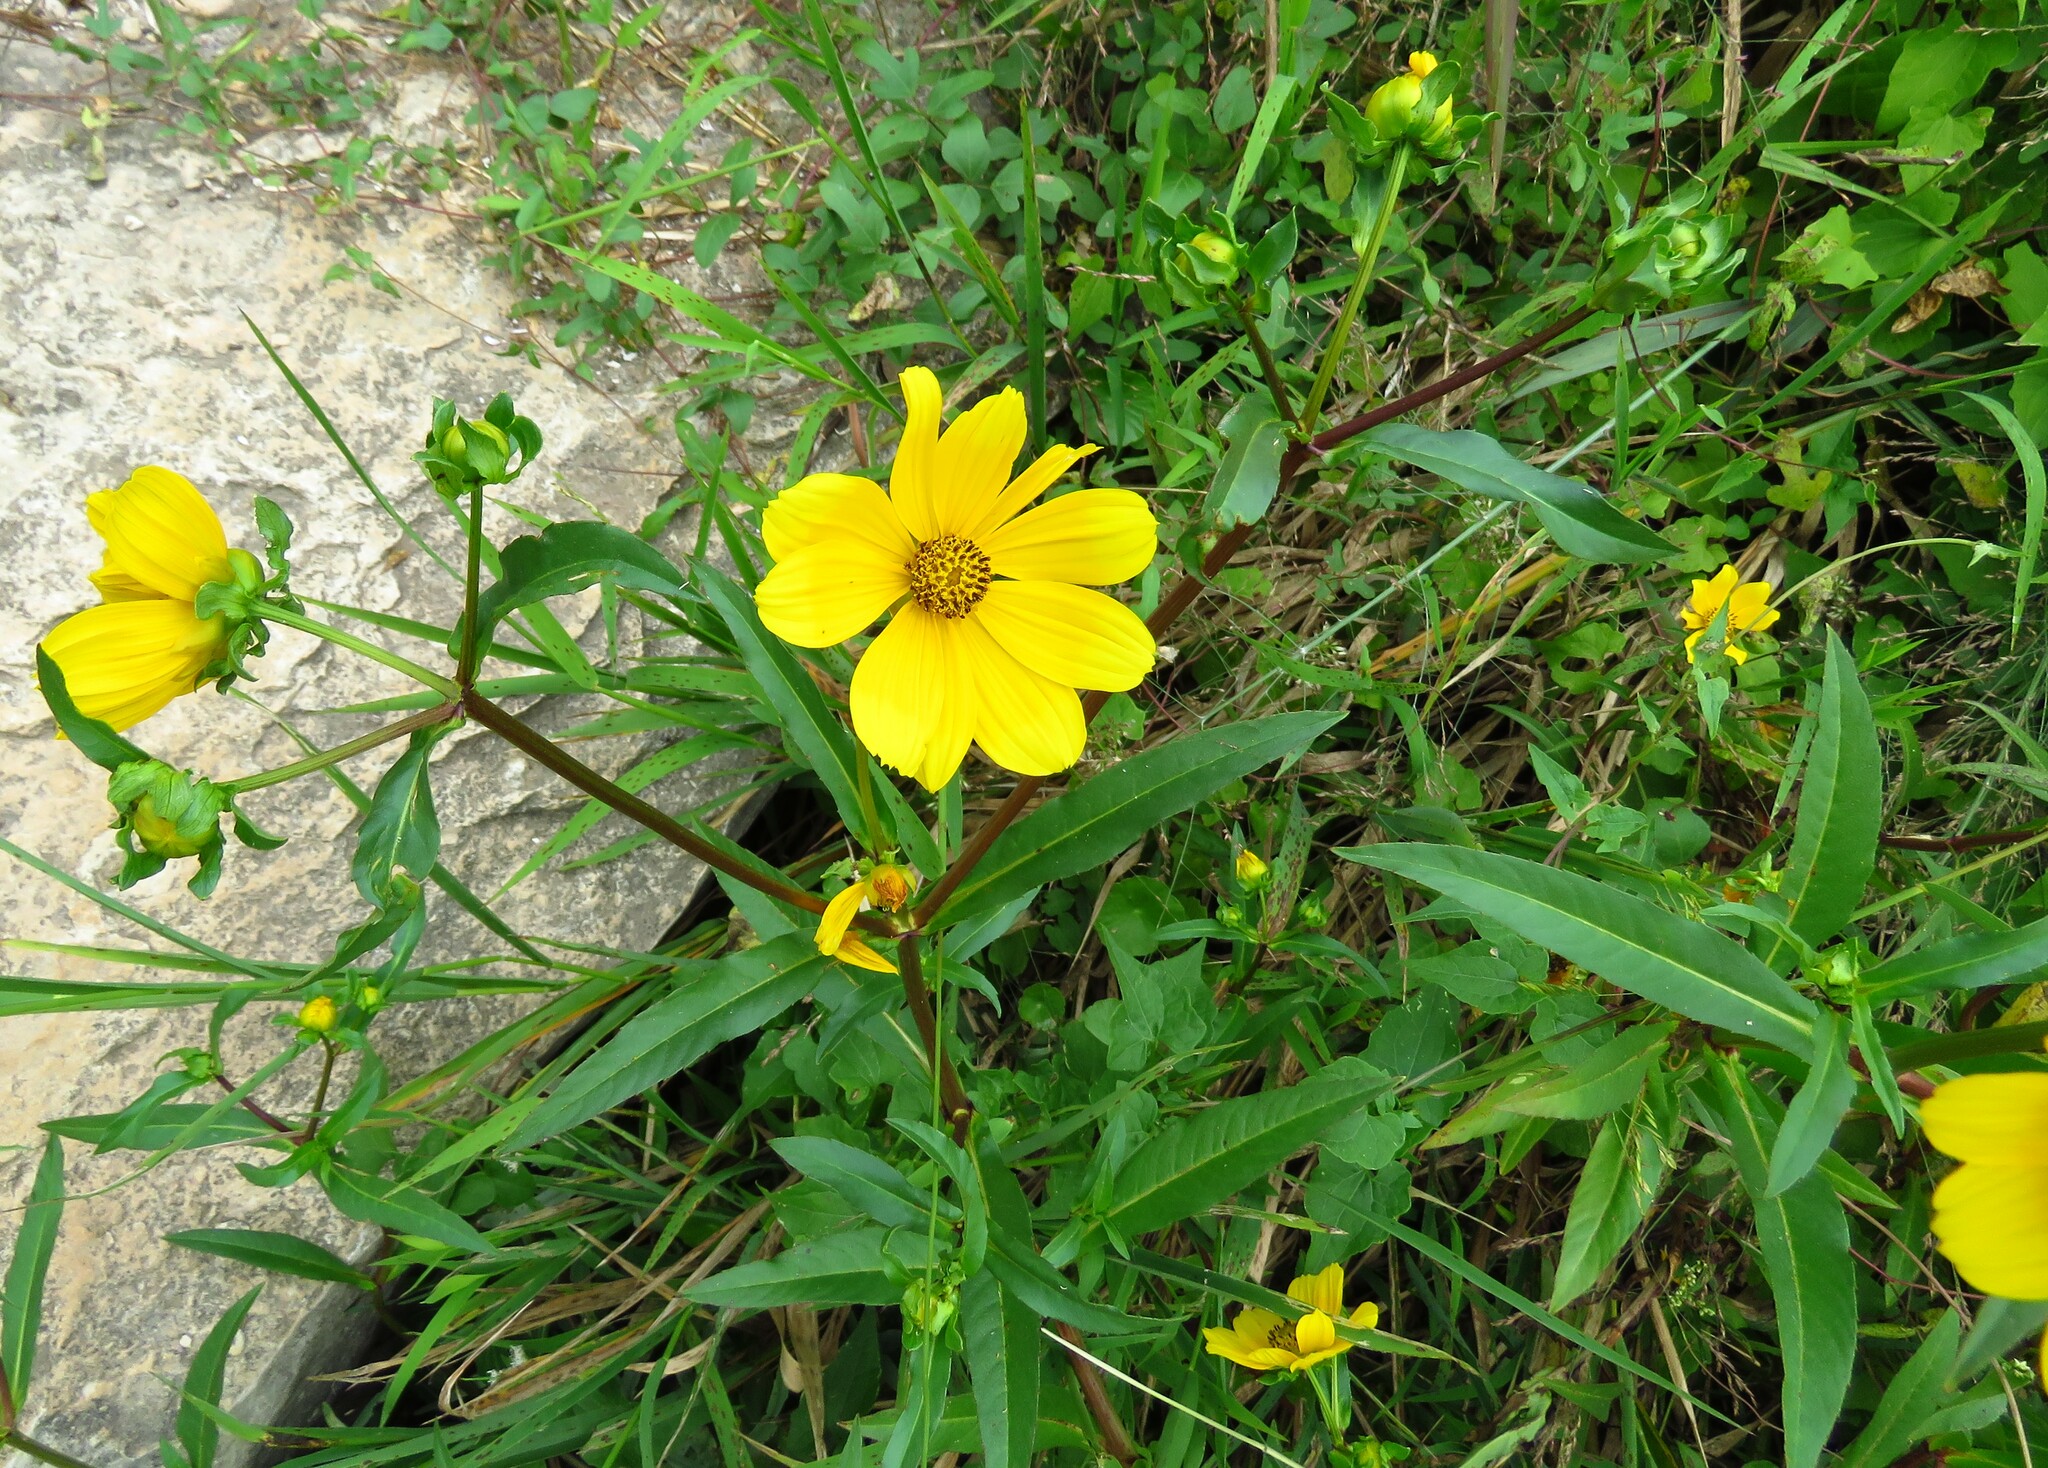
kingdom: Plantae
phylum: Tracheophyta
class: Magnoliopsida
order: Asterales
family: Asteraceae
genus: Bidens
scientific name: Bidens laevis
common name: Larger bur-marigold
